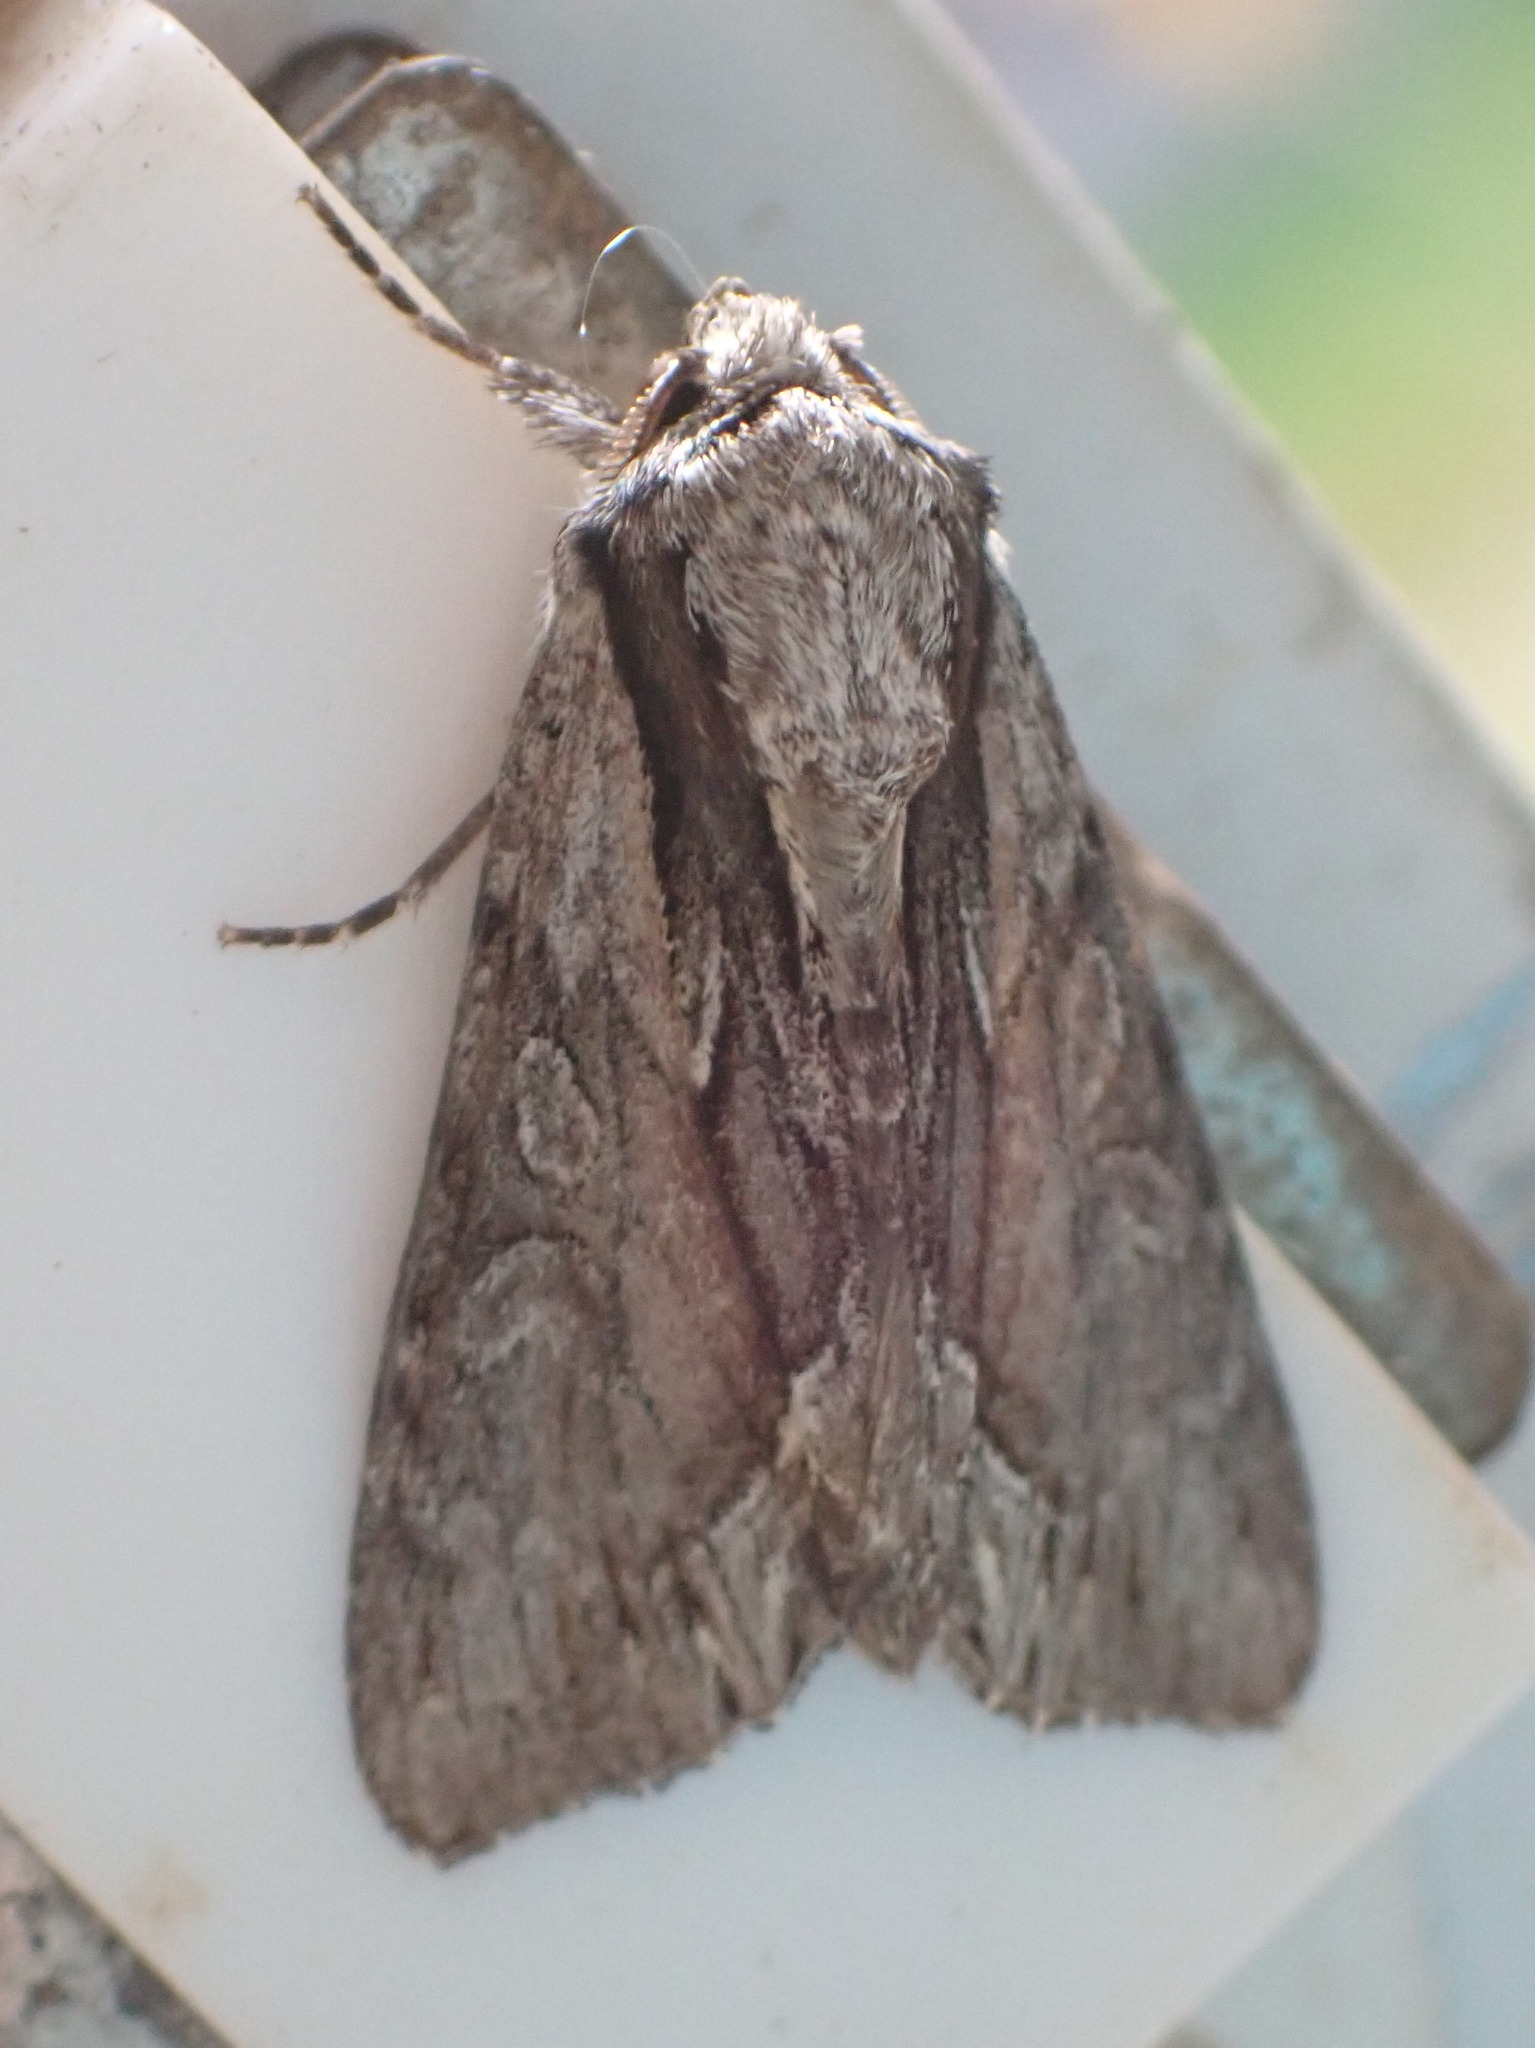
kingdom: Animalia
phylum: Arthropoda
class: Insecta
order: Lepidoptera
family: Noctuidae
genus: Hyppa
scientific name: Hyppa xylinoides
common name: Common hyppa moth
